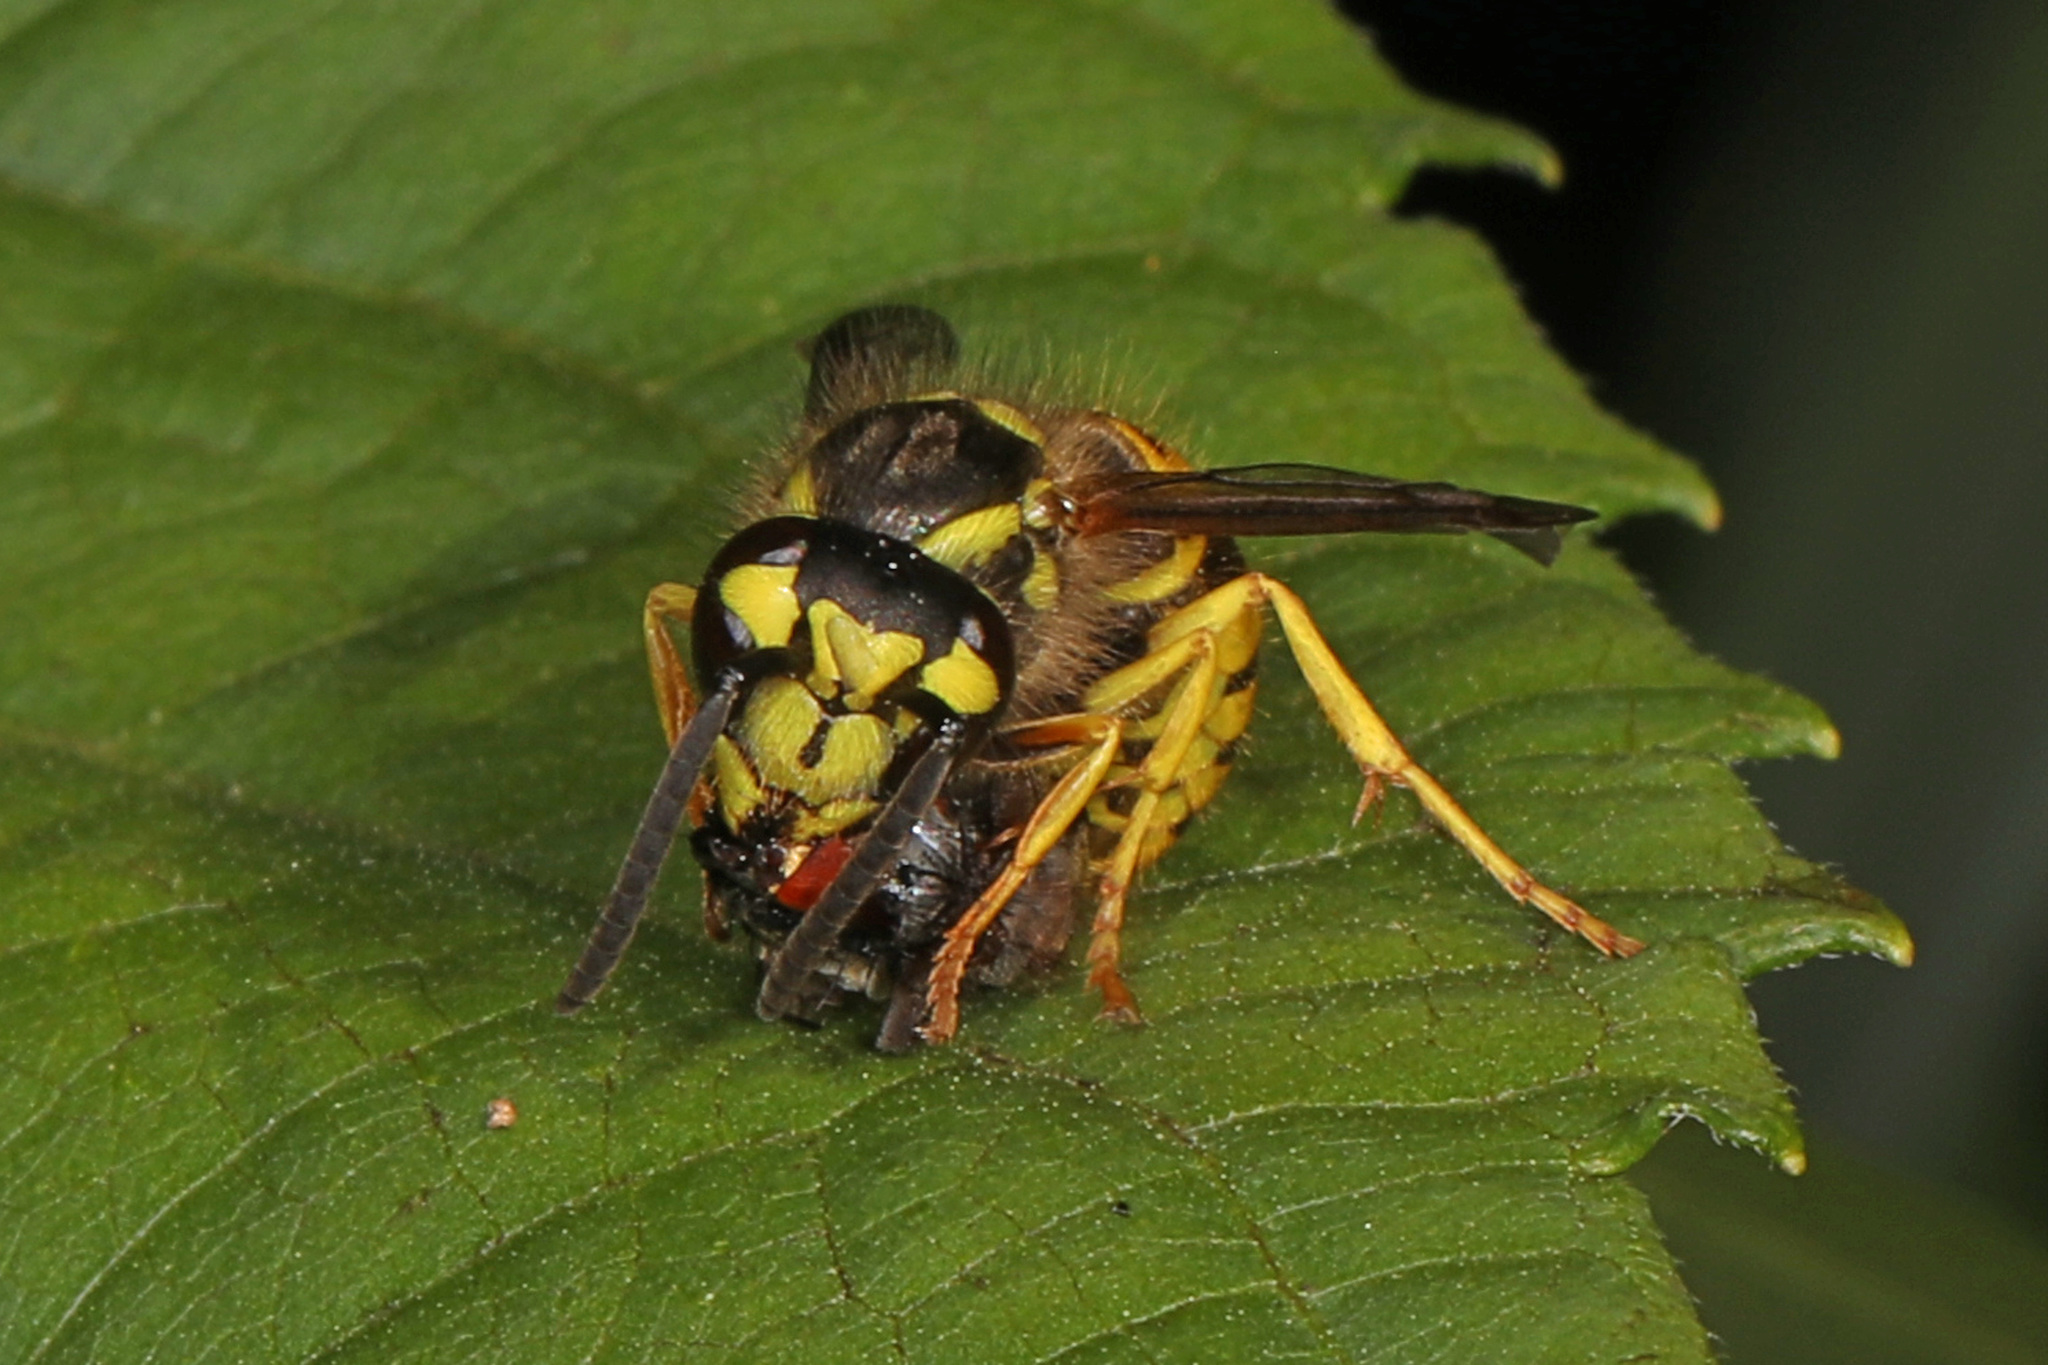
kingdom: Animalia
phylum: Arthropoda
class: Insecta
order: Hymenoptera
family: Vespidae
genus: Vespula
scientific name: Vespula maculifrons
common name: Eastern yellowjacket
